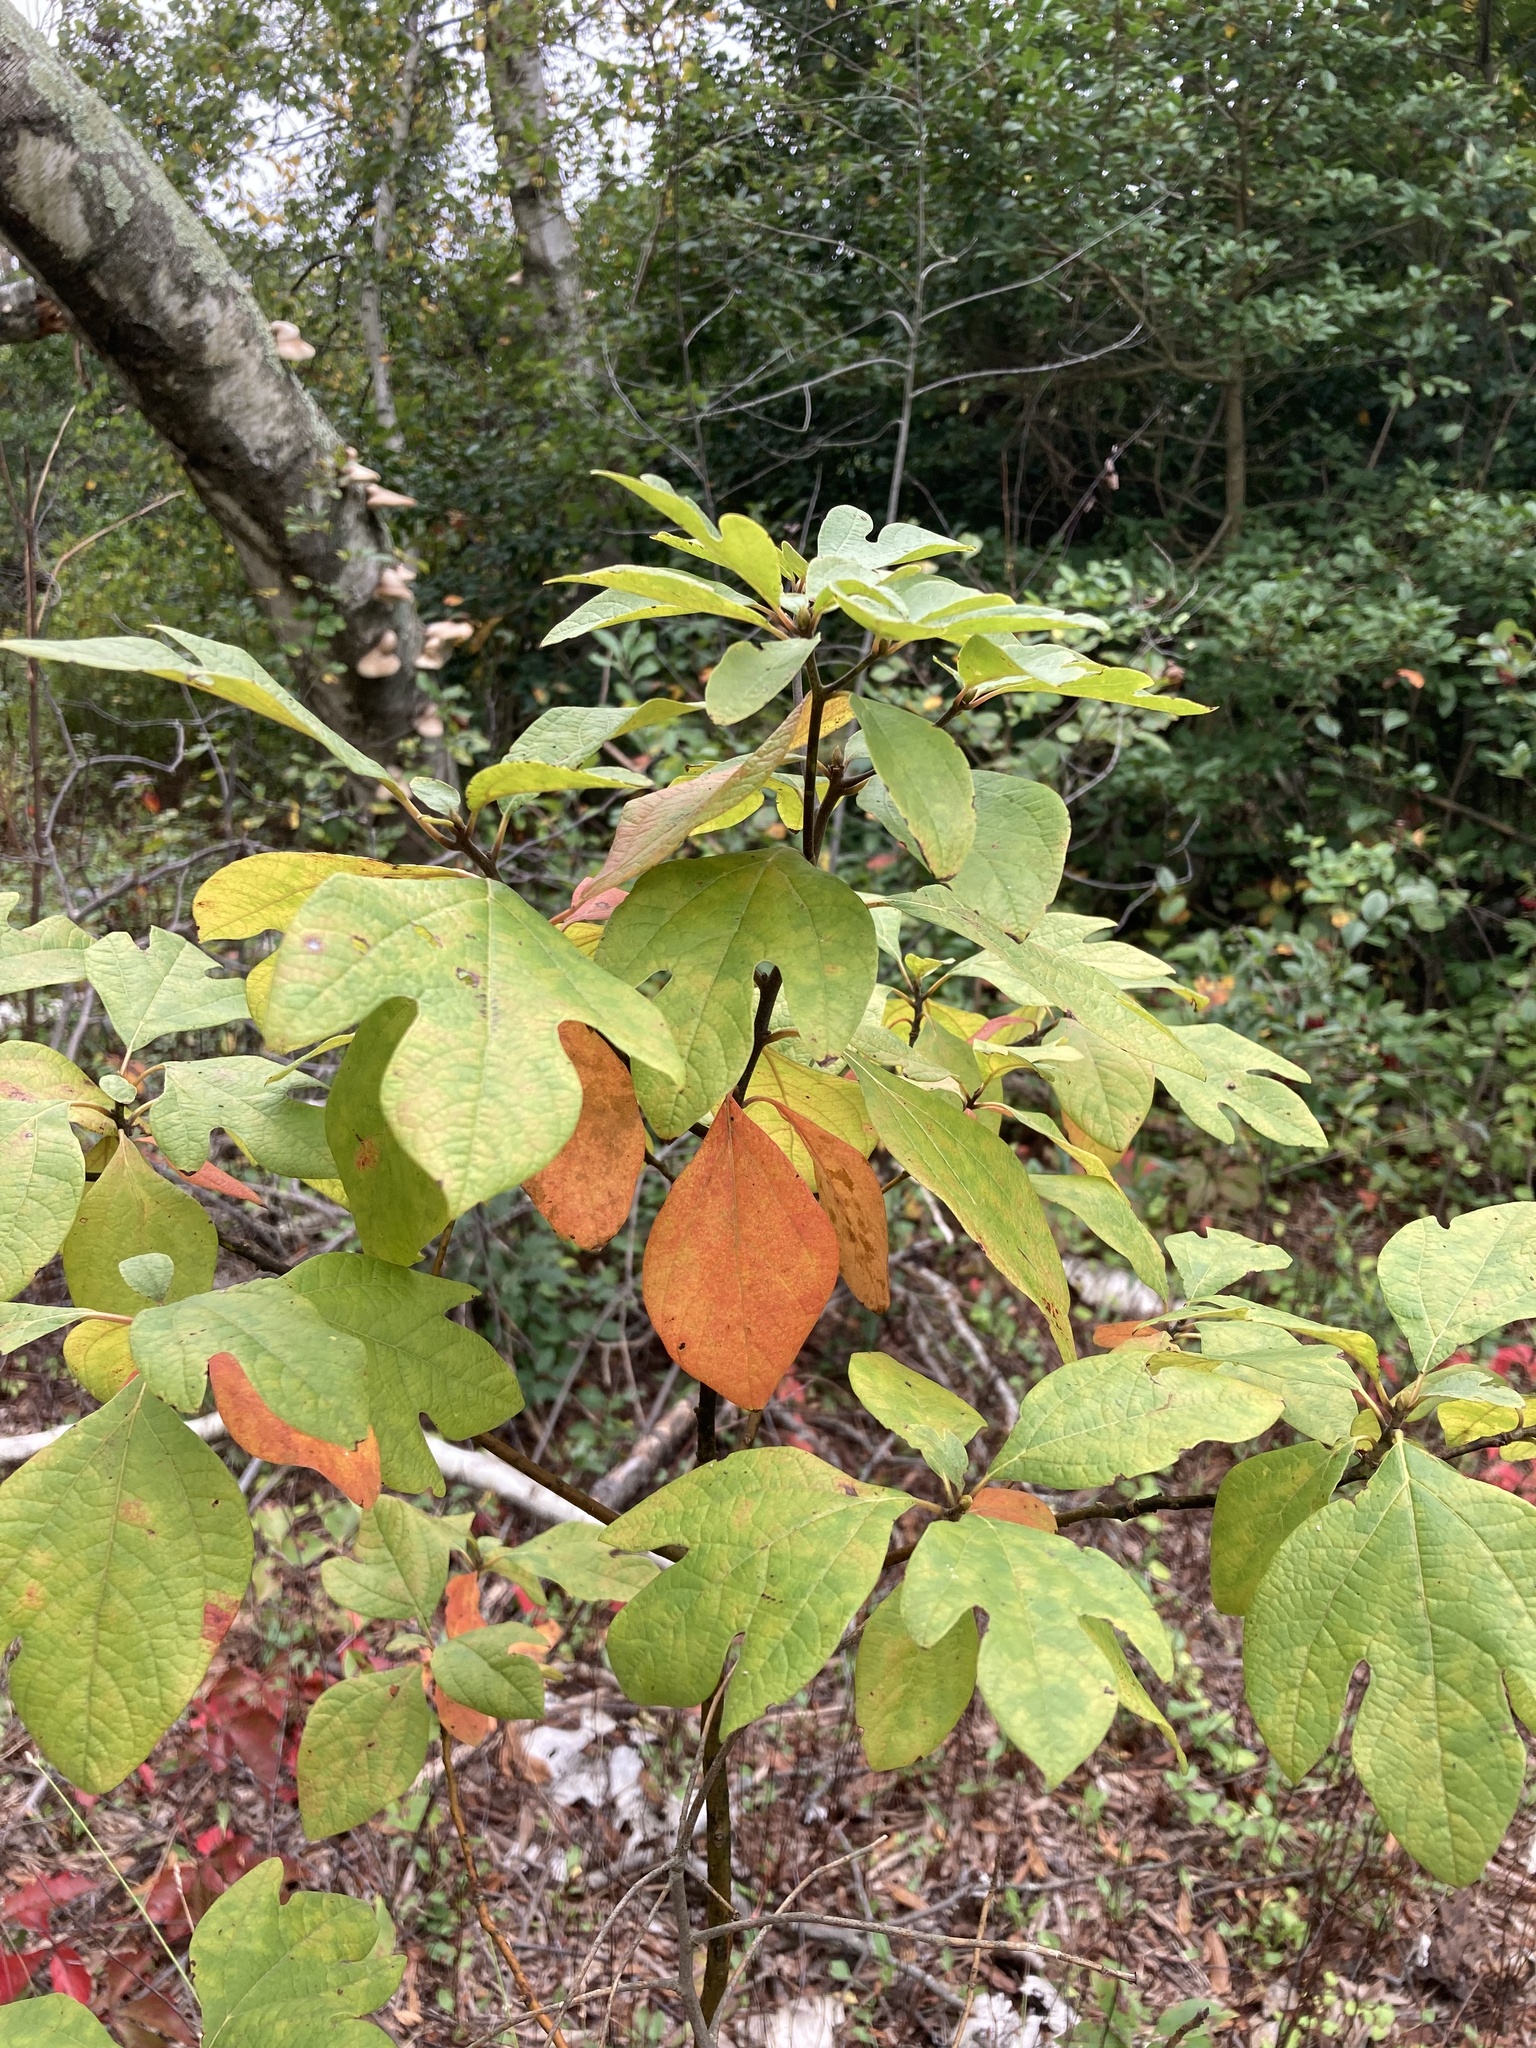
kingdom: Plantae
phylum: Tracheophyta
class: Magnoliopsida
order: Laurales
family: Lauraceae
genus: Sassafras
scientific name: Sassafras albidum
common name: Sassafras
